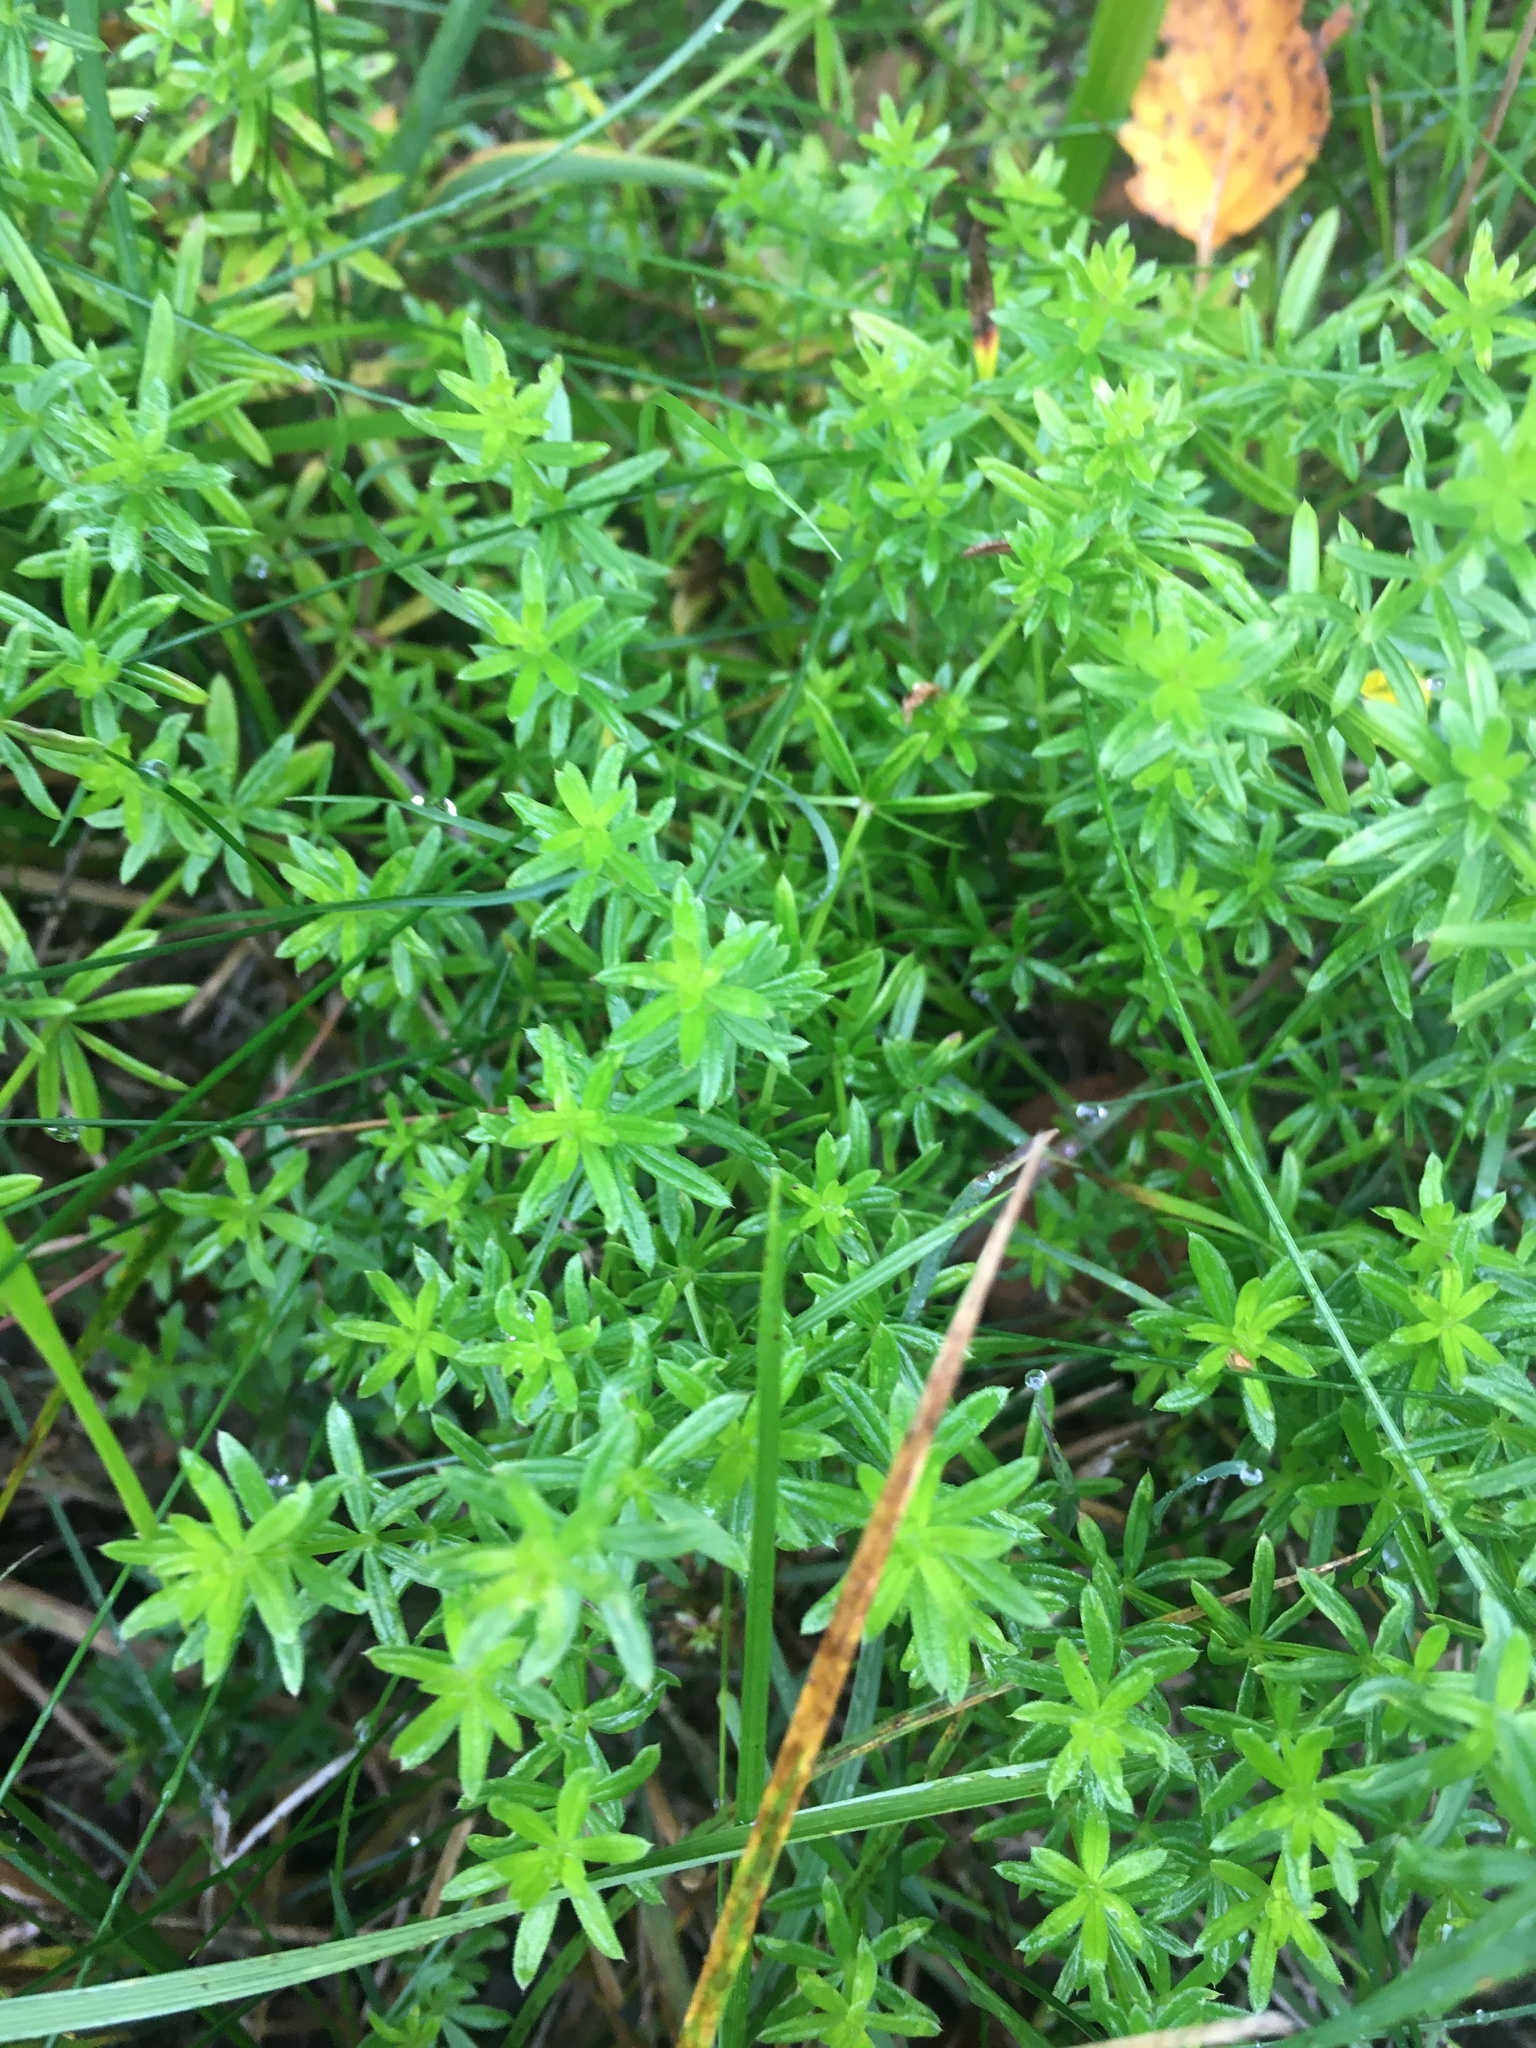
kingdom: Plantae
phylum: Tracheophyta
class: Magnoliopsida
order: Gentianales
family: Rubiaceae
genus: Galium
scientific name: Galium mollugo
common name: Hedge bedstraw
